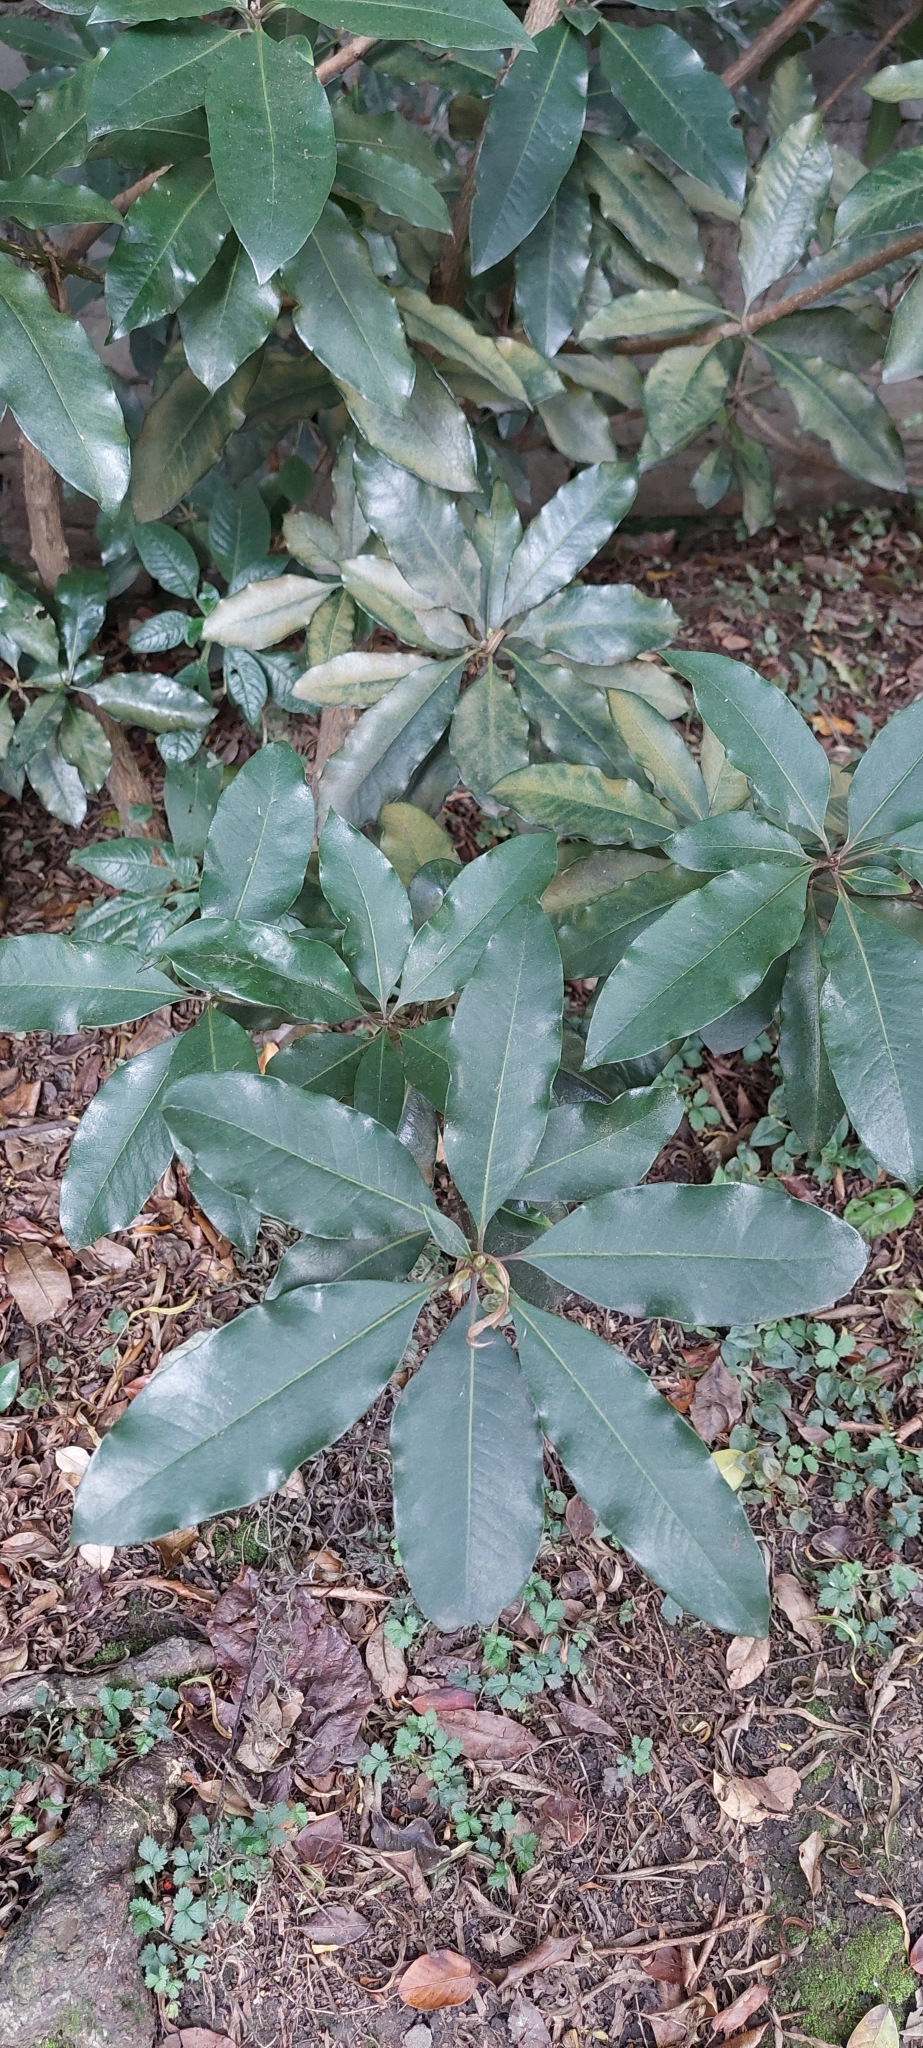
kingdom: Plantae
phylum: Tracheophyta
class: Magnoliopsida
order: Apiales
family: Pittosporaceae
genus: Pittosporum
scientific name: Pittosporum undulatum
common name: Australian cheesewood
